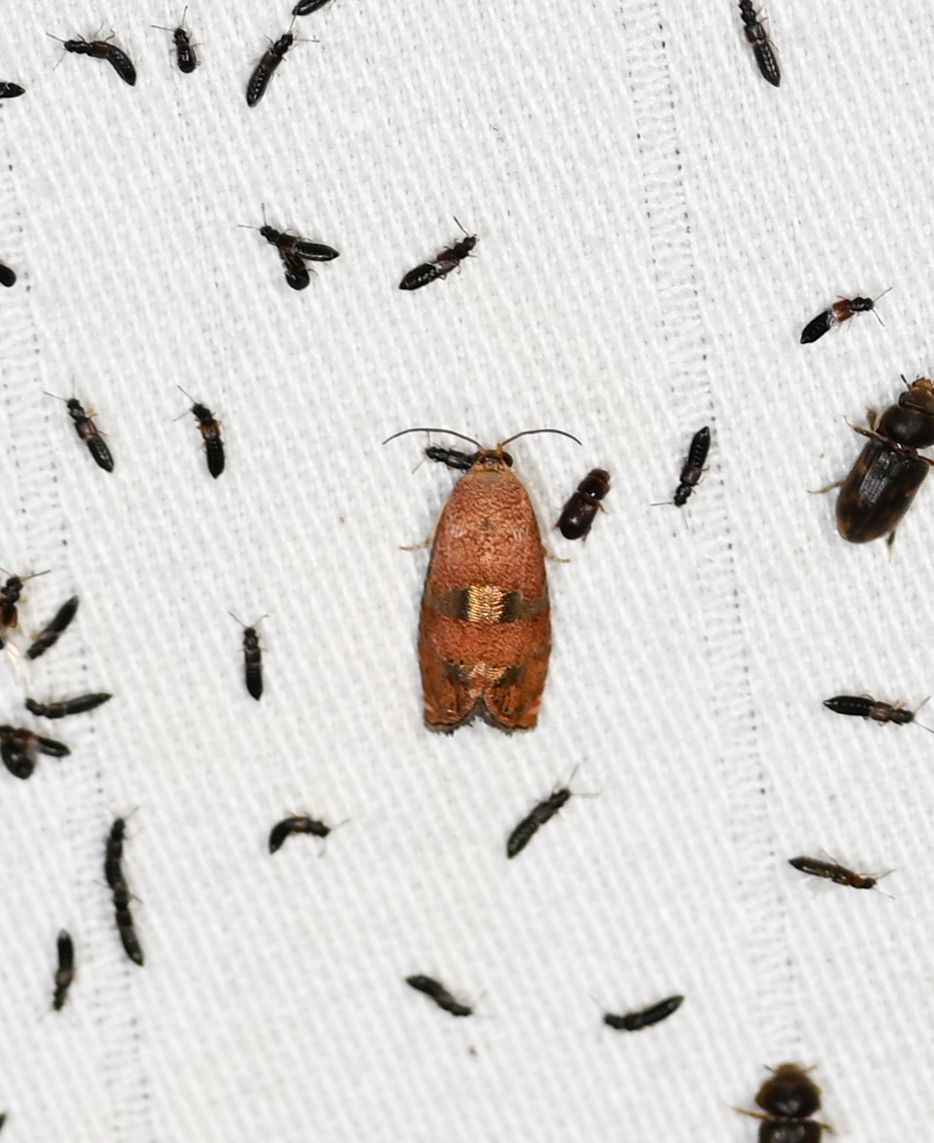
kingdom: Animalia
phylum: Arthropoda
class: Insecta
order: Lepidoptera
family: Tortricidae
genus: Cydia
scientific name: Cydia latiferreana
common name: Filbertworm moth
